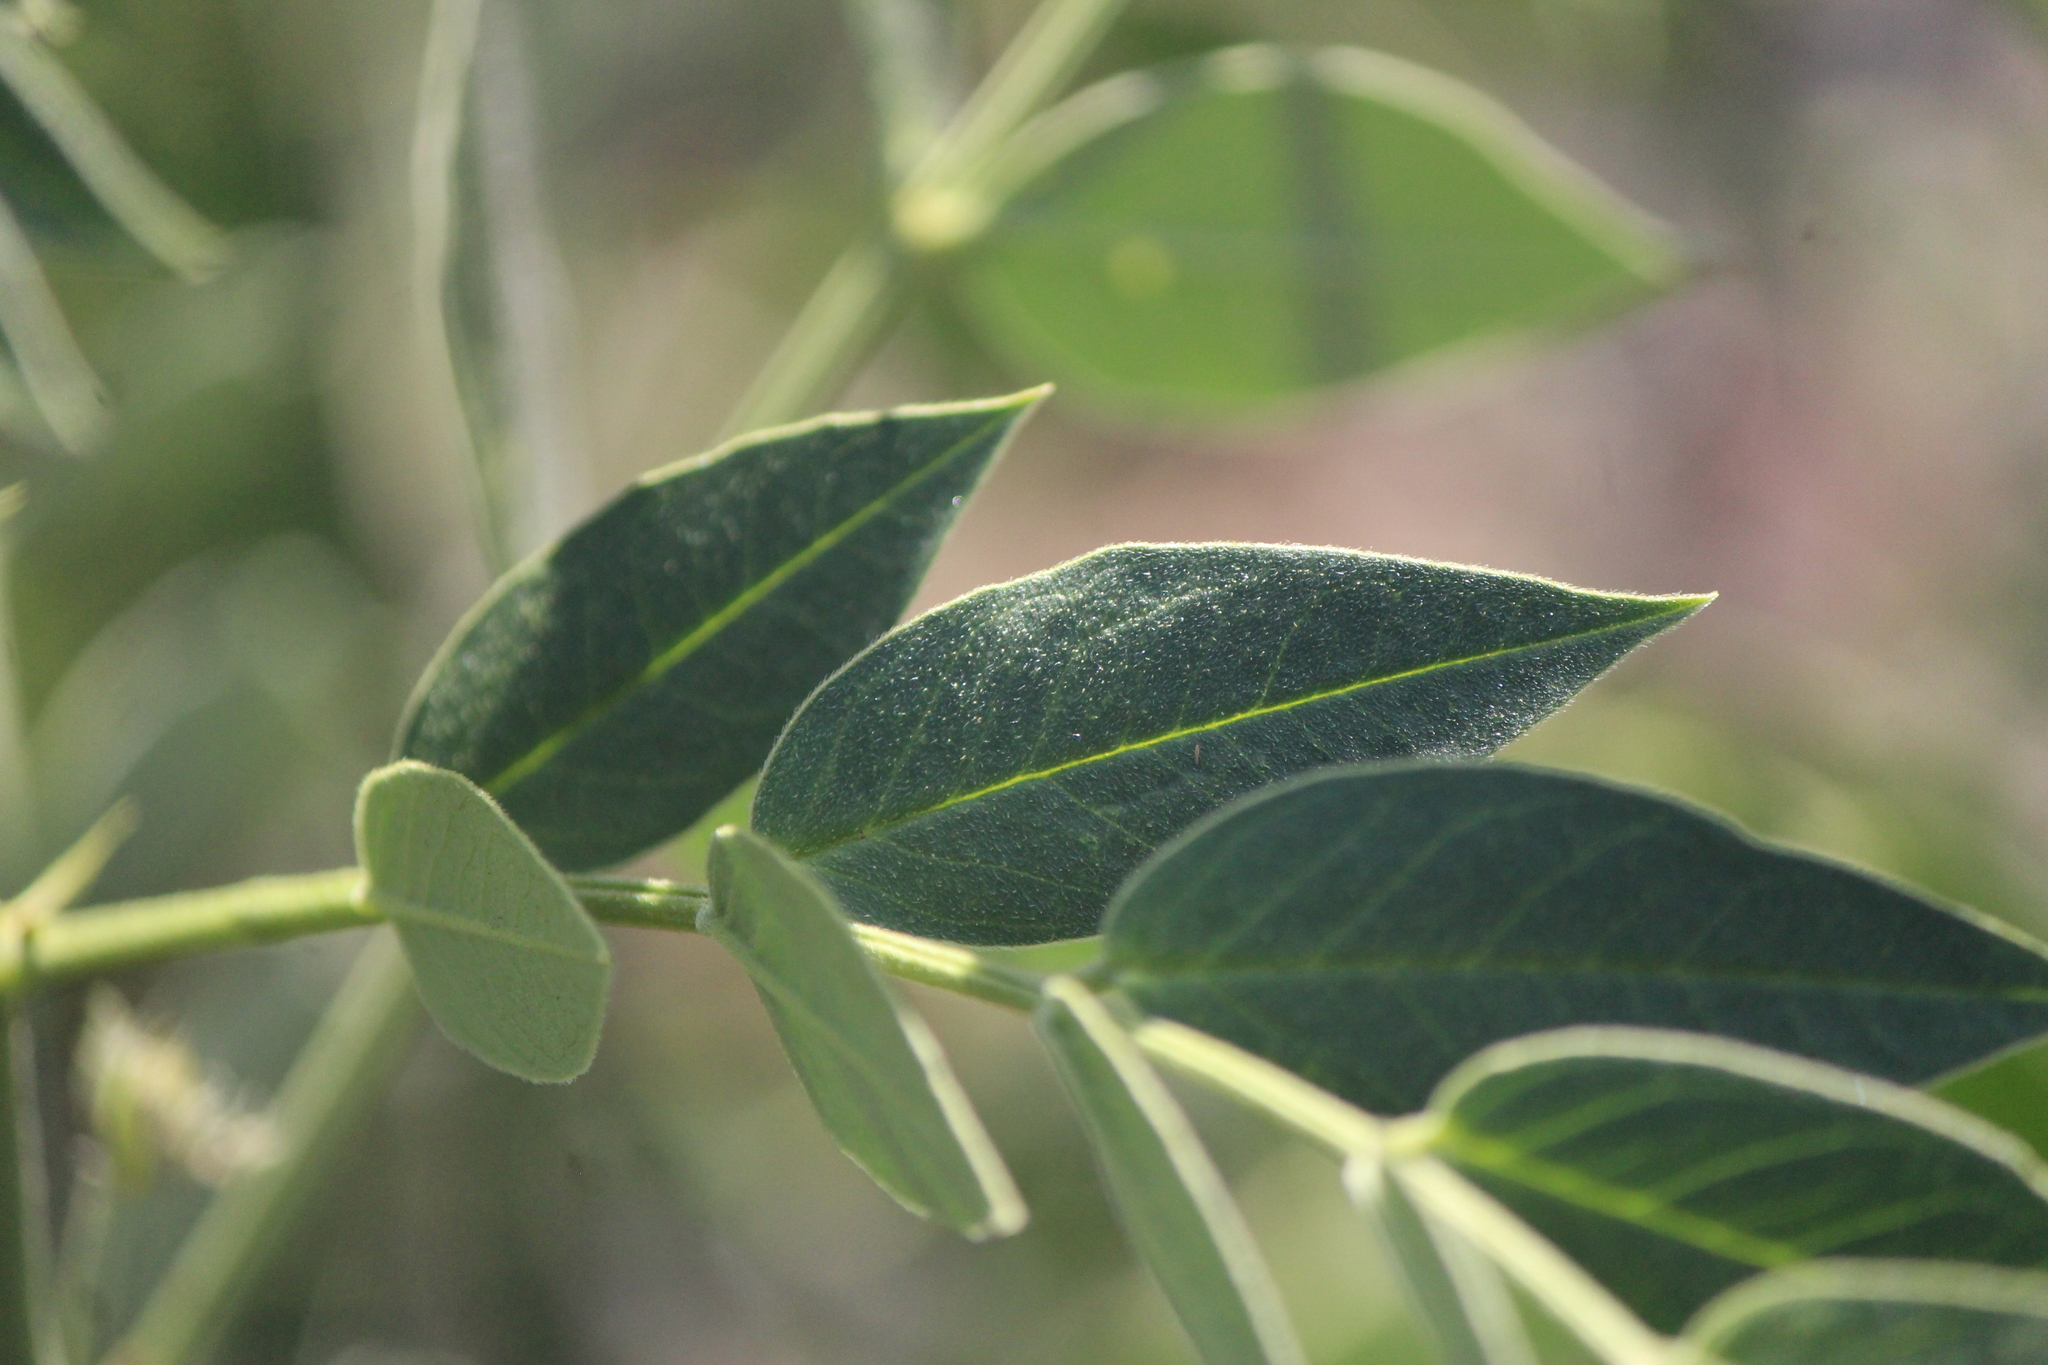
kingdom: Plantae
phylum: Tracheophyta
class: Magnoliopsida
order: Fabales
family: Fabaceae
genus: Senna
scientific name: Senna hirsuta
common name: Woolly senna
